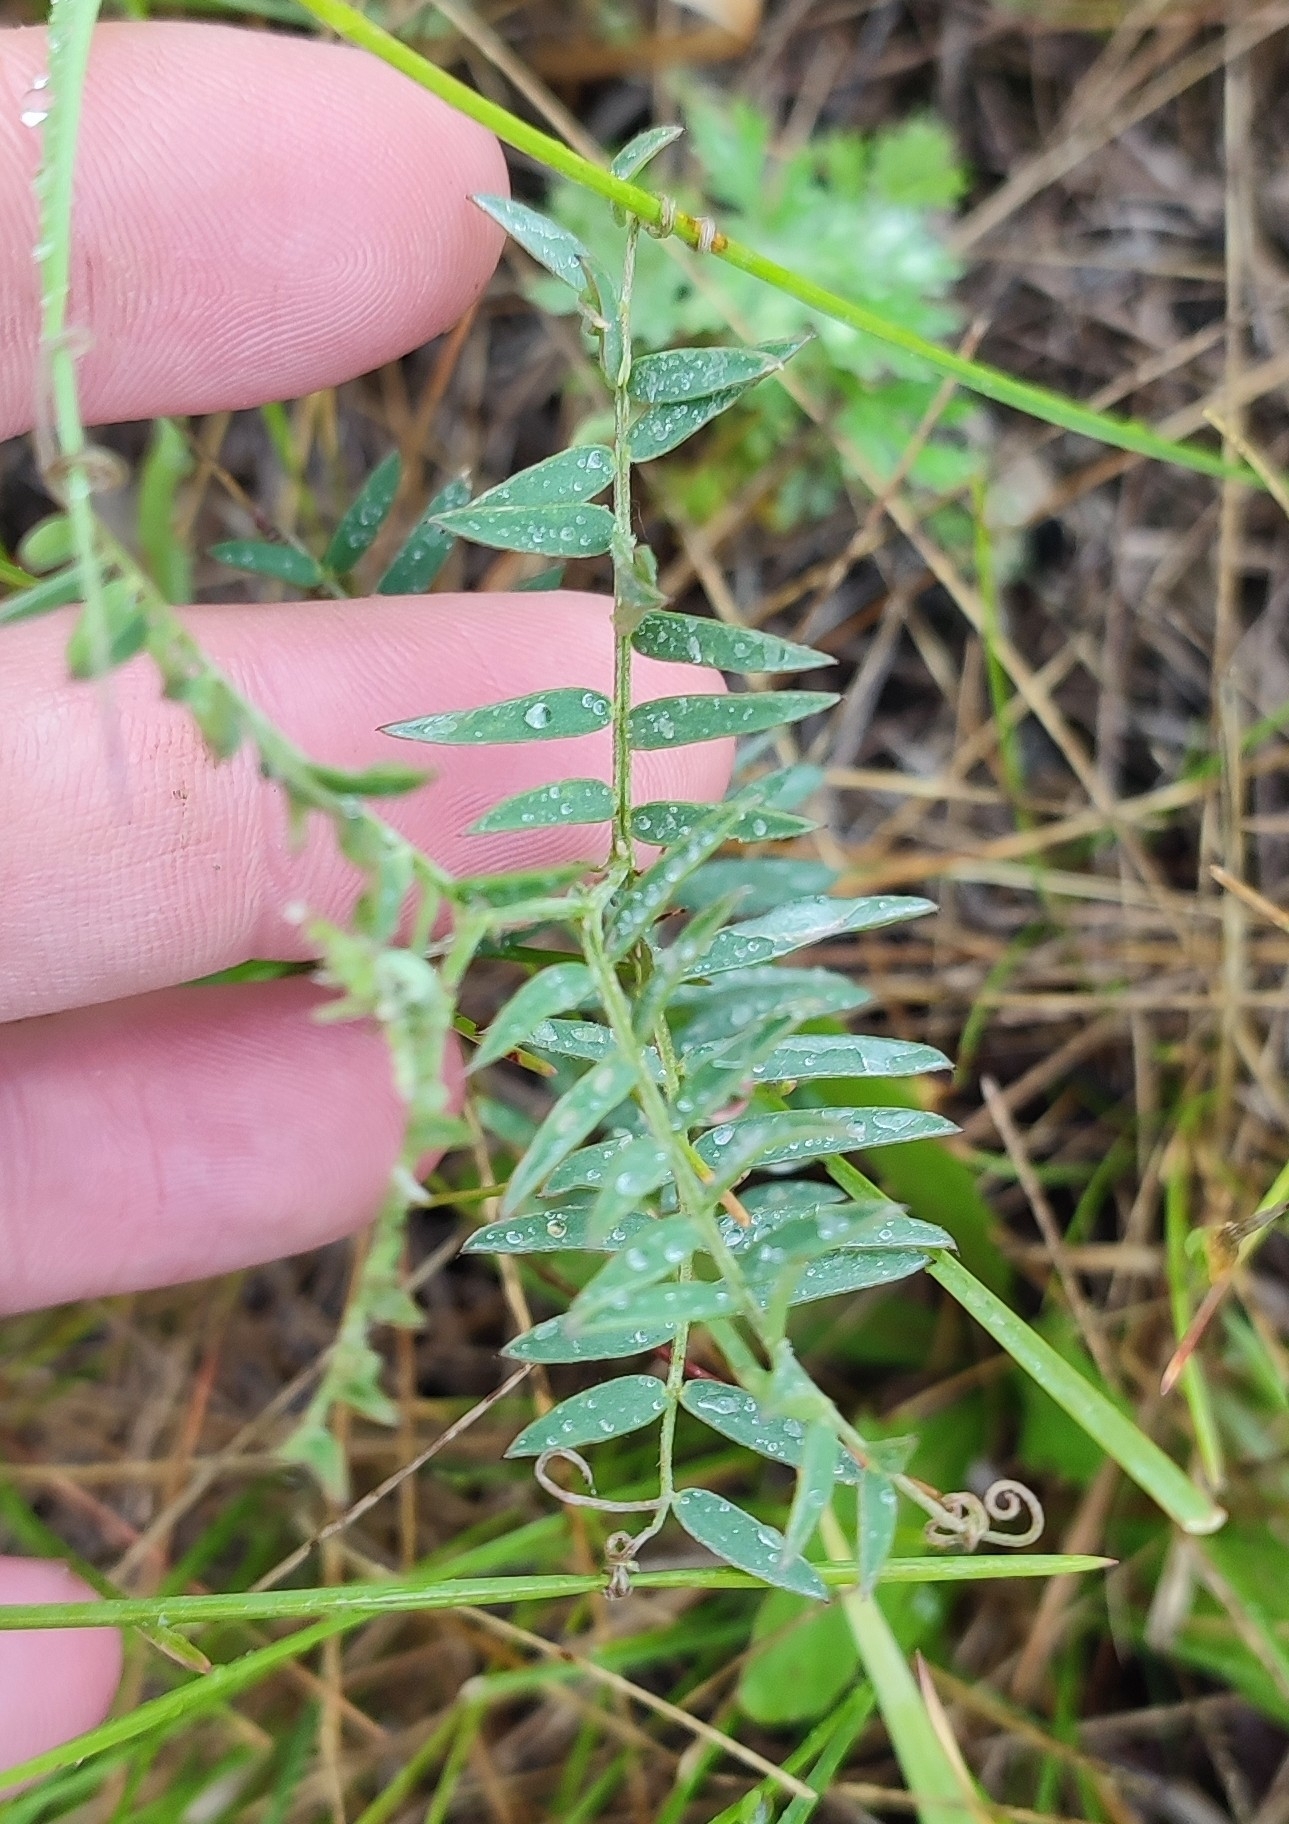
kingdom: Plantae
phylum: Tracheophyta
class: Magnoliopsida
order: Fabales
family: Fabaceae
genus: Vicia
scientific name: Vicia cracca
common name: Bird vetch
